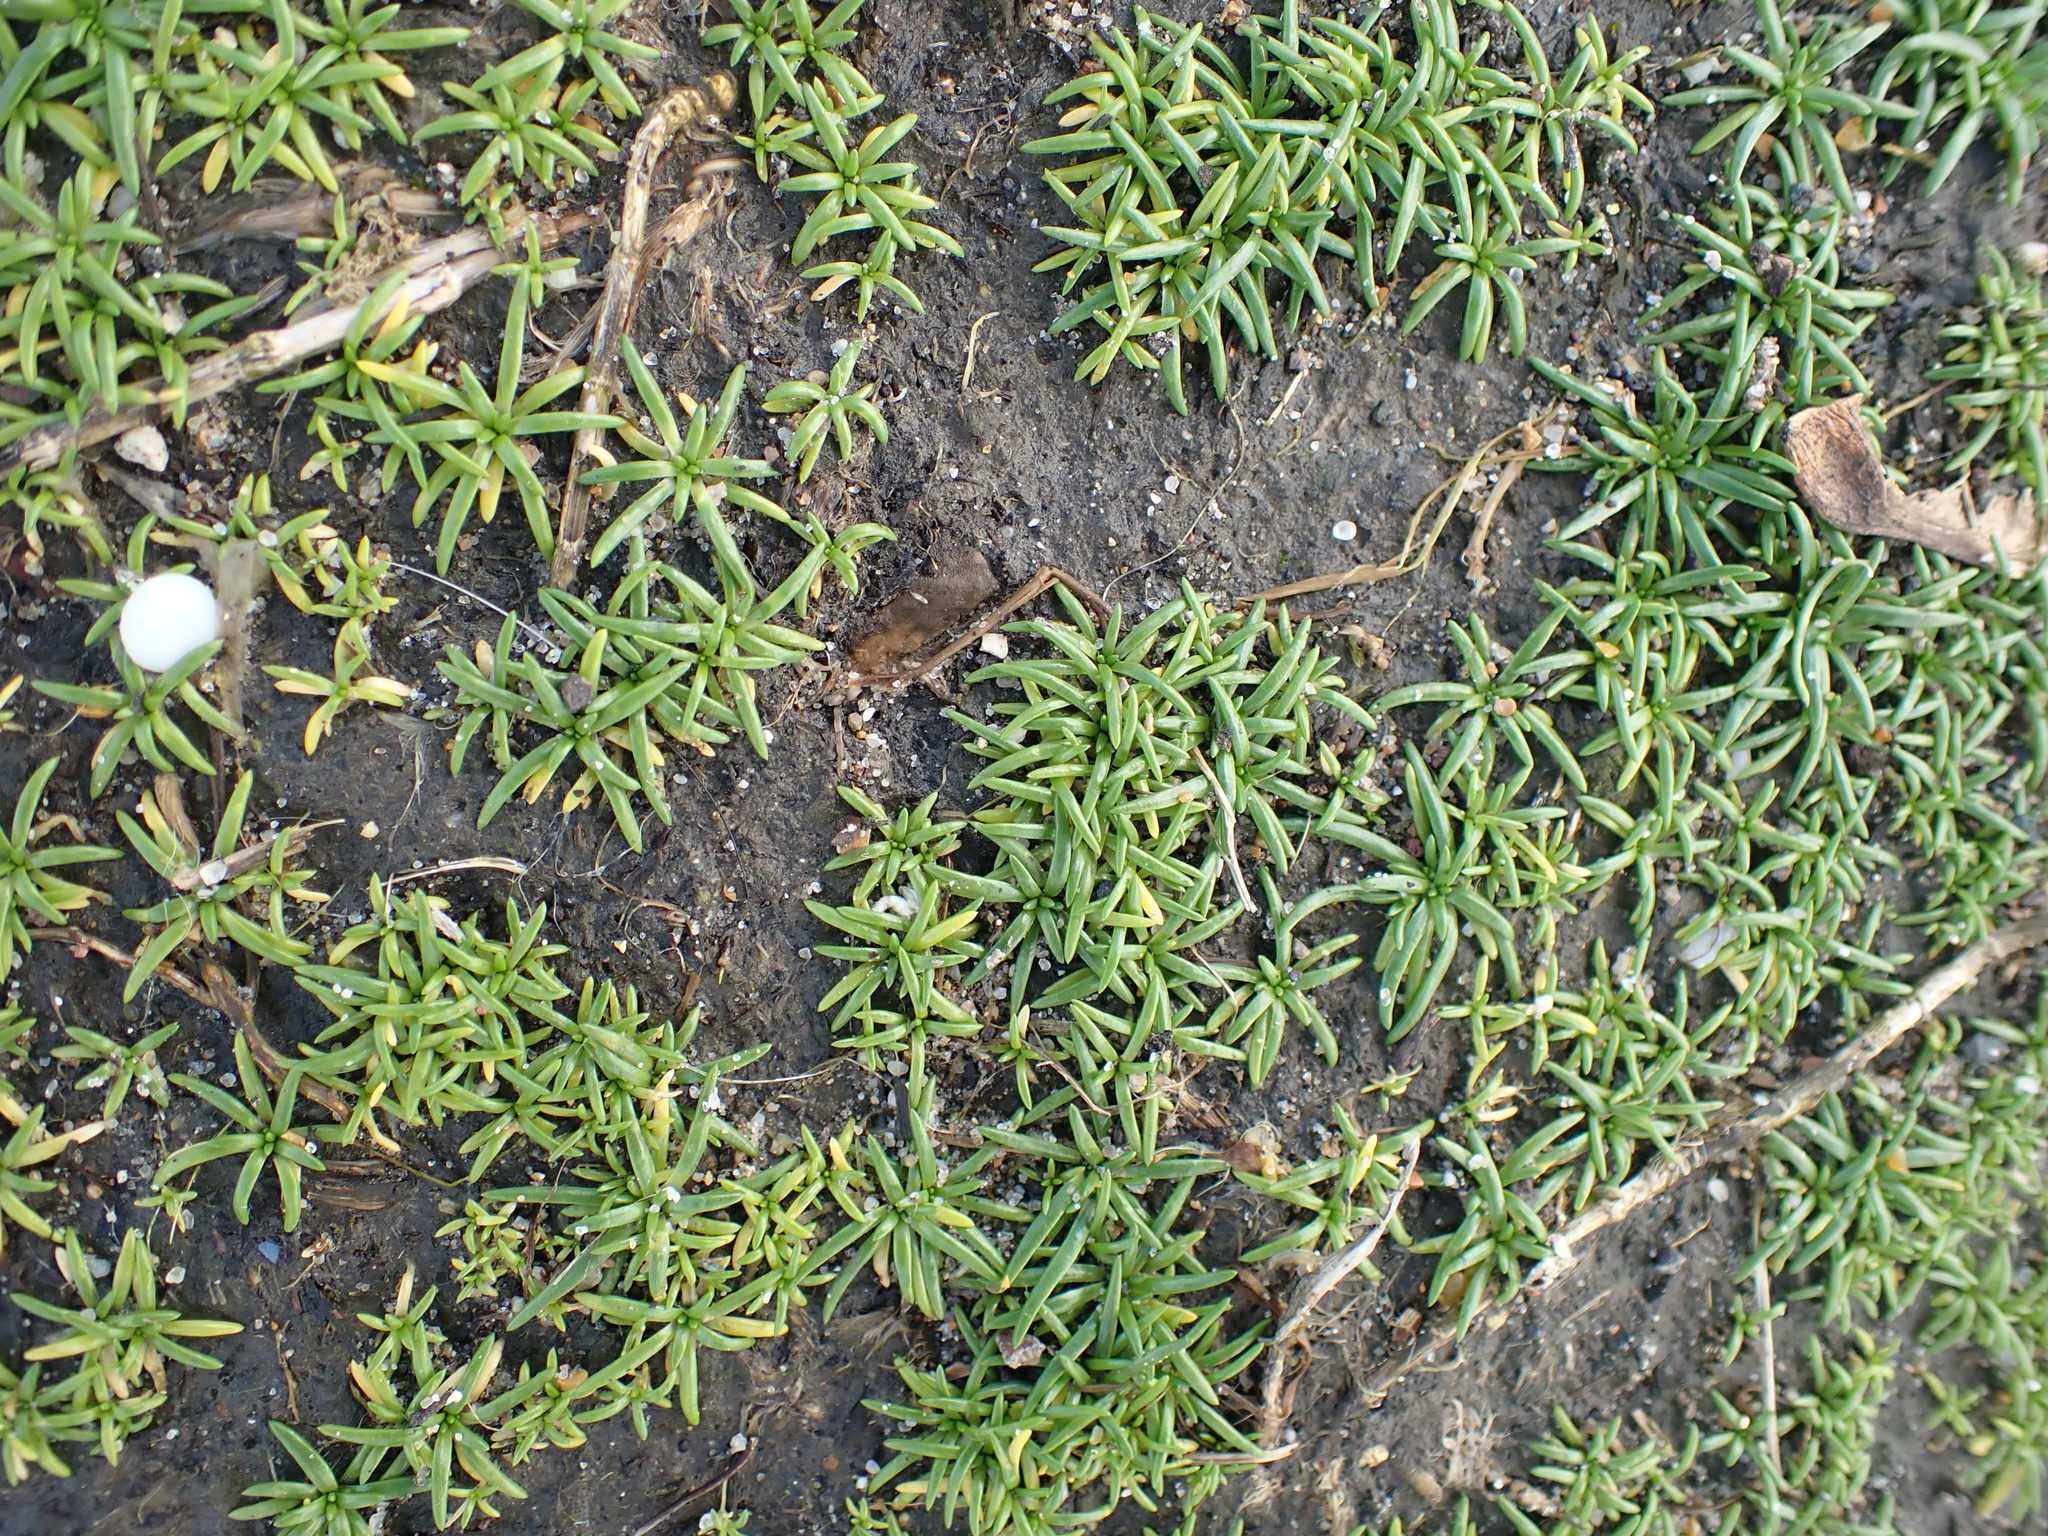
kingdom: Plantae
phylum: Tracheophyta
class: Magnoliopsida
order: Caryophyllales
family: Caryophyllaceae
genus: Sagina
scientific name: Sagina procumbens
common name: Procumbent pearlwort
